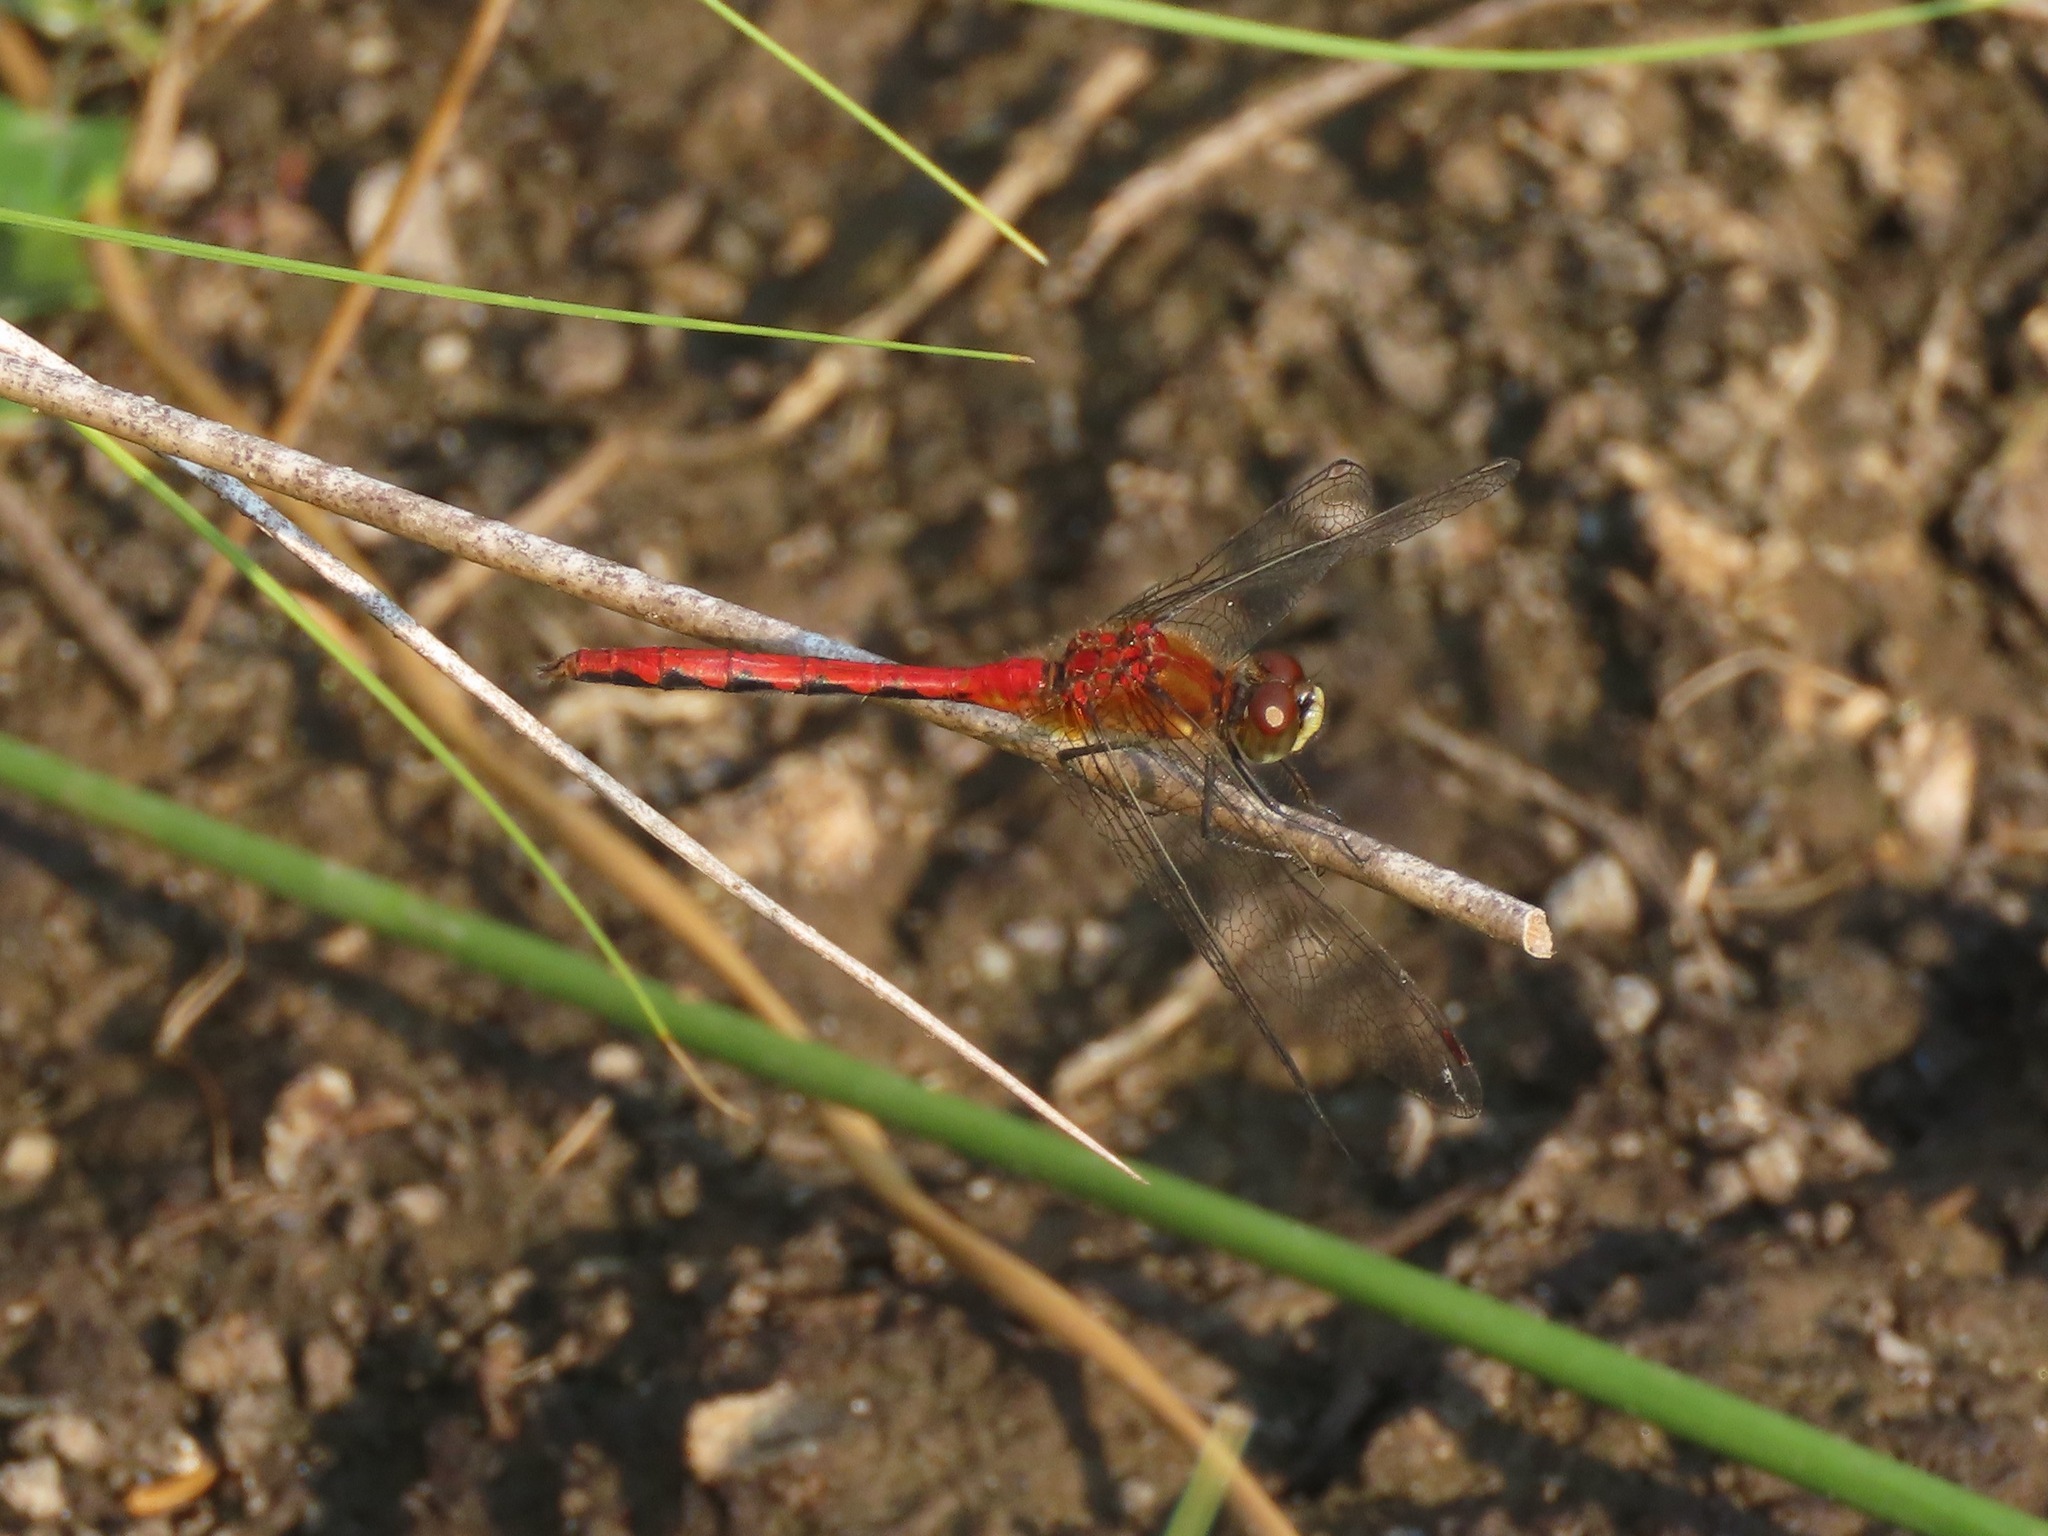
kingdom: Animalia
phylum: Arthropoda
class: Insecta
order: Odonata
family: Libellulidae
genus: Sympetrum
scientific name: Sympetrum obtrusum
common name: White-faced meadowhawk
